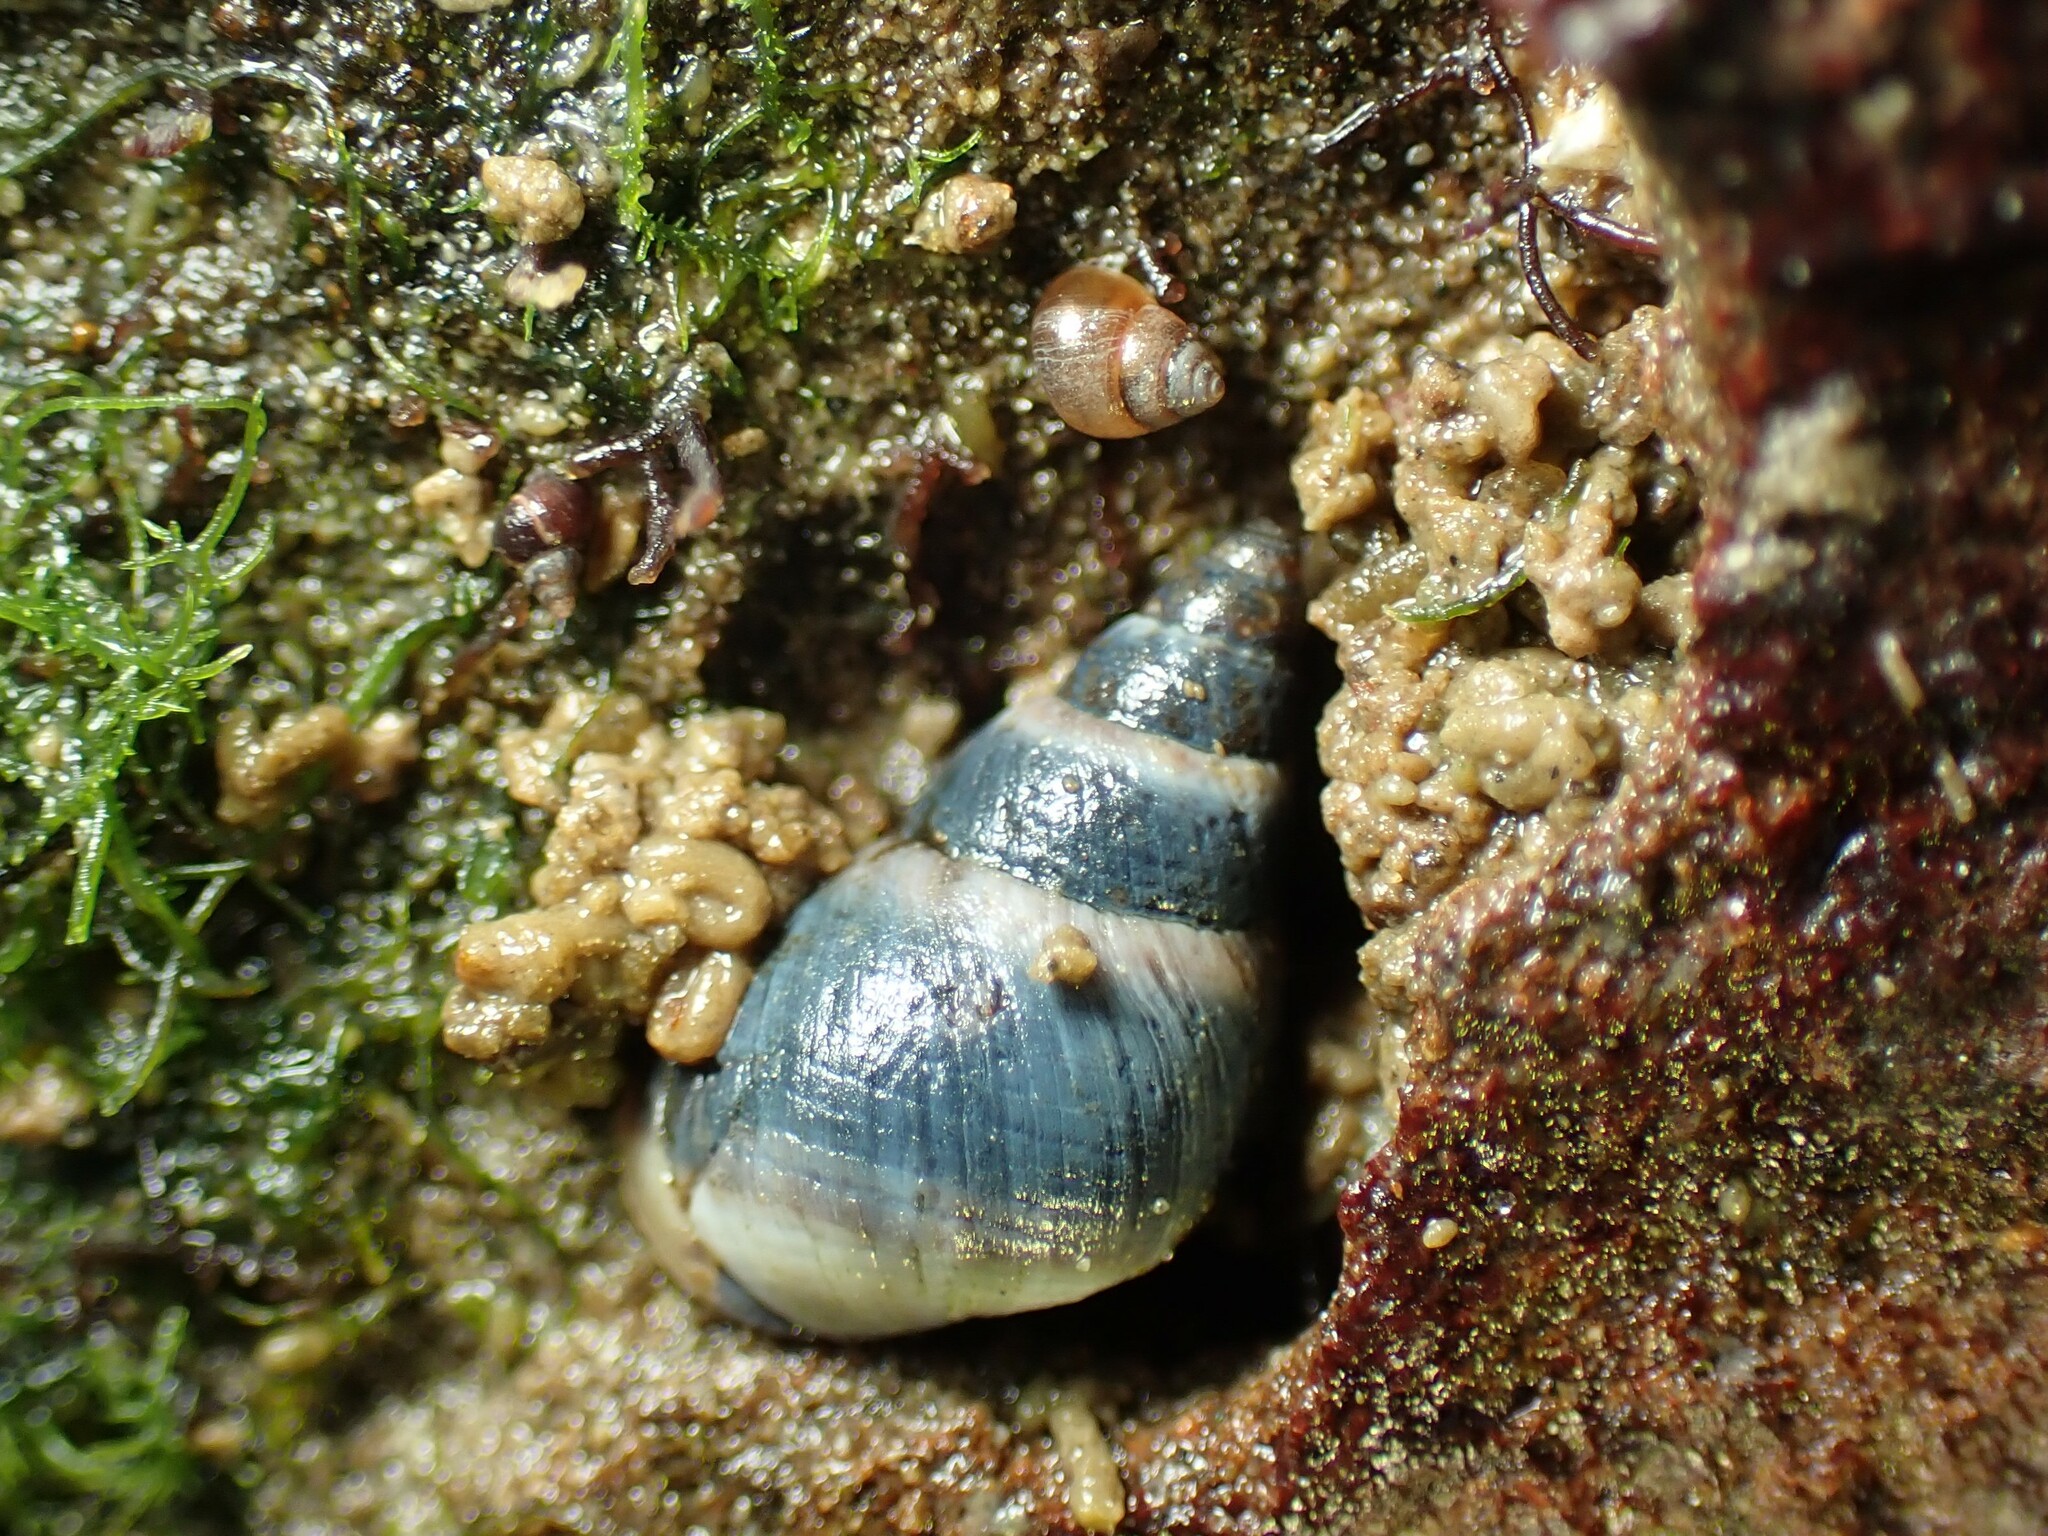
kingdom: Animalia
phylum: Mollusca
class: Gastropoda
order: Littorinimorpha
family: Littorinidae
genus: Austrolittorina
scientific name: Austrolittorina antipodum
